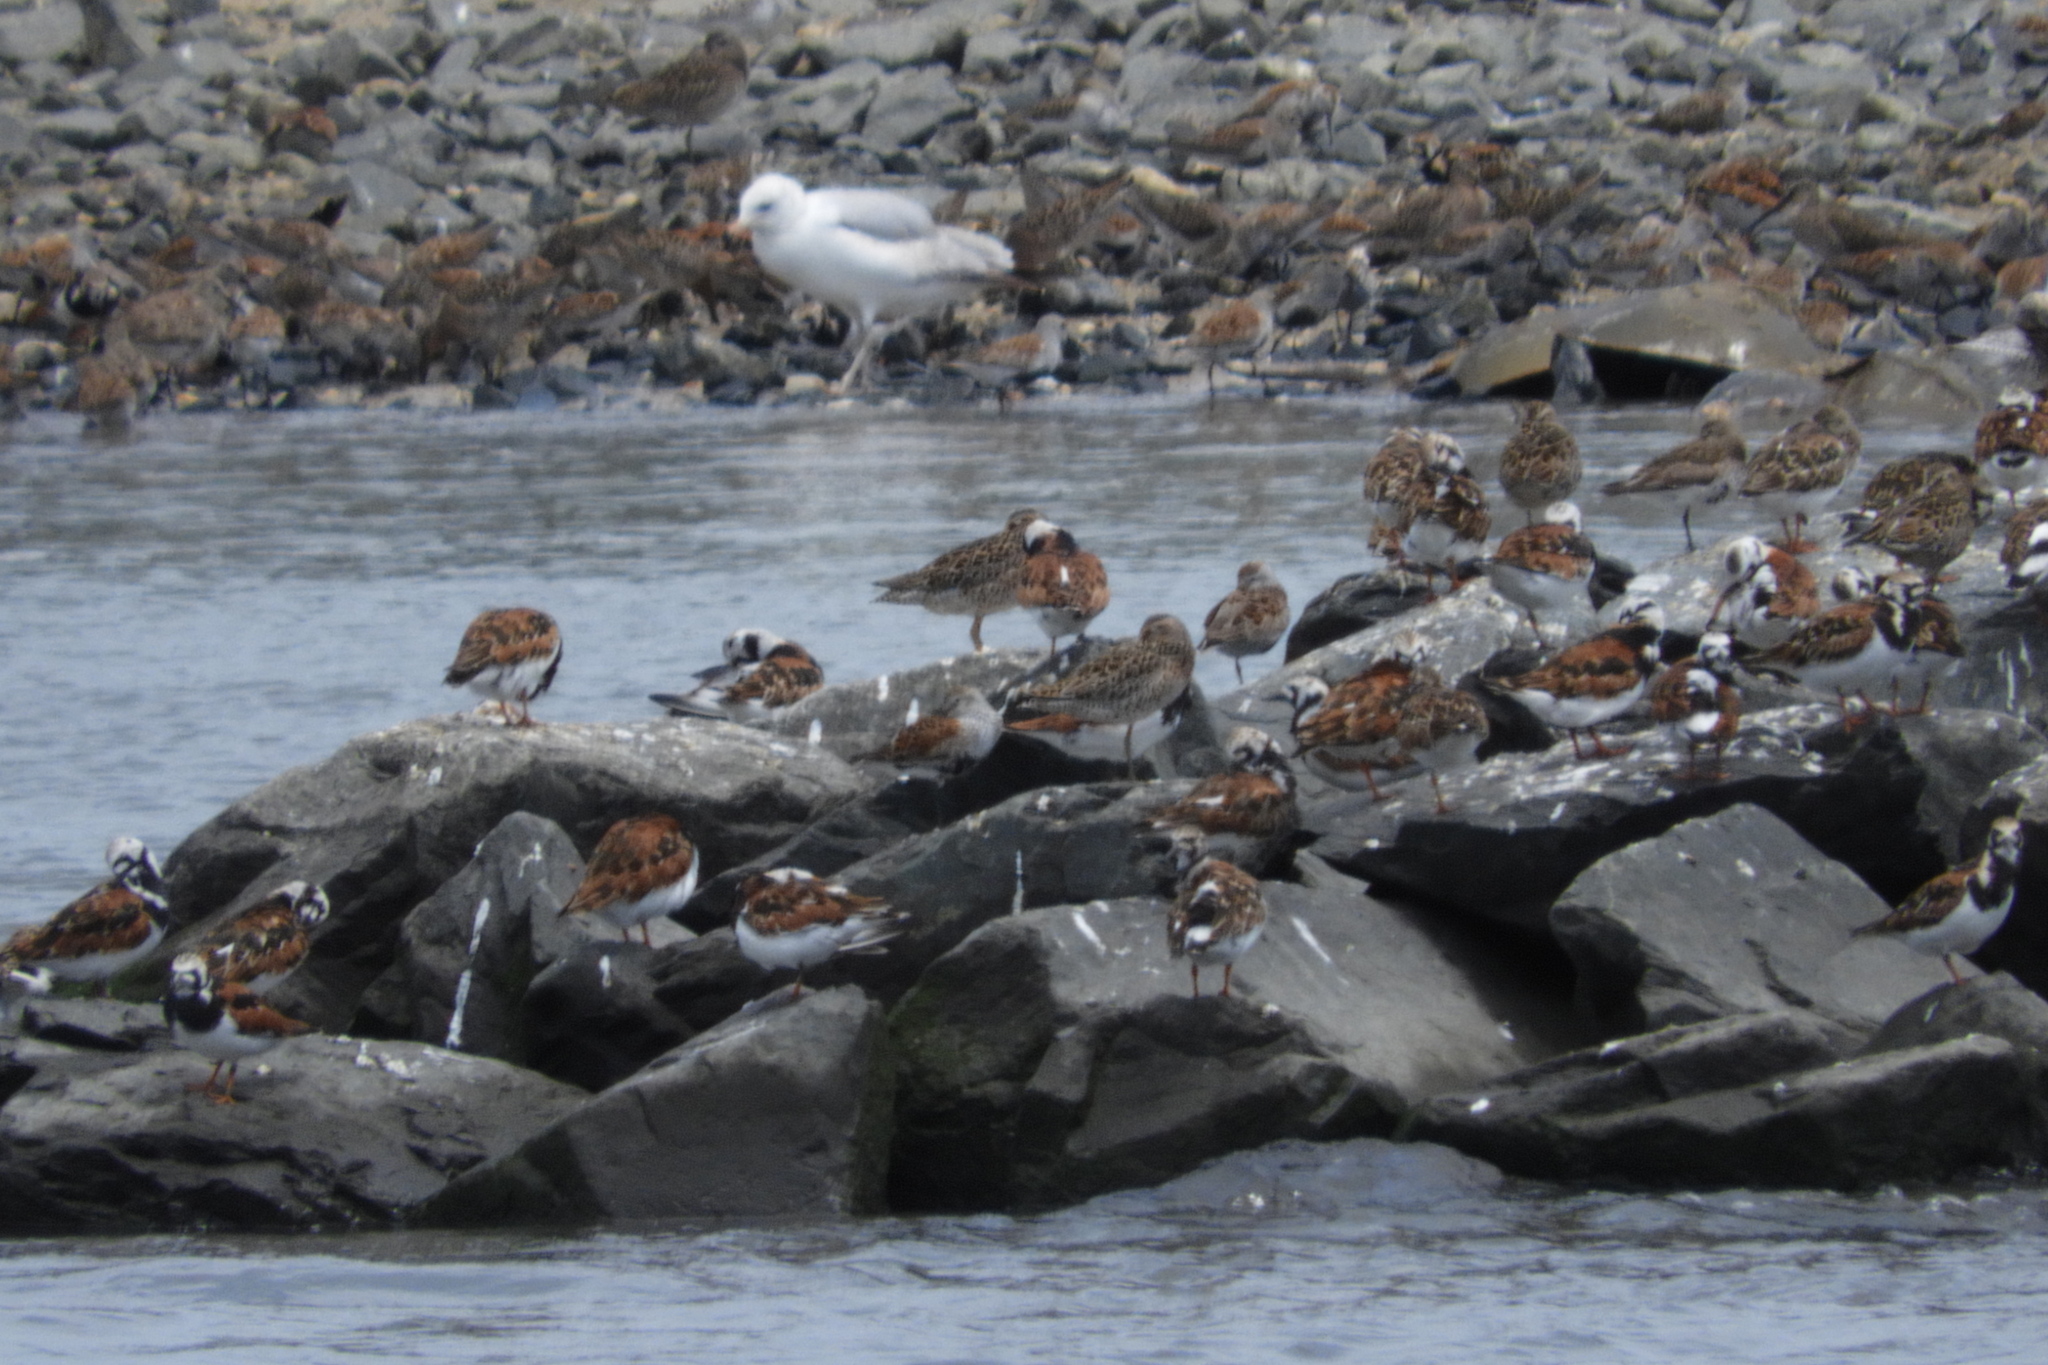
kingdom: Animalia
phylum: Chordata
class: Aves
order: Charadriiformes
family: Scolopacidae
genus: Arenaria
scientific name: Arenaria interpres
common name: Ruddy turnstone
